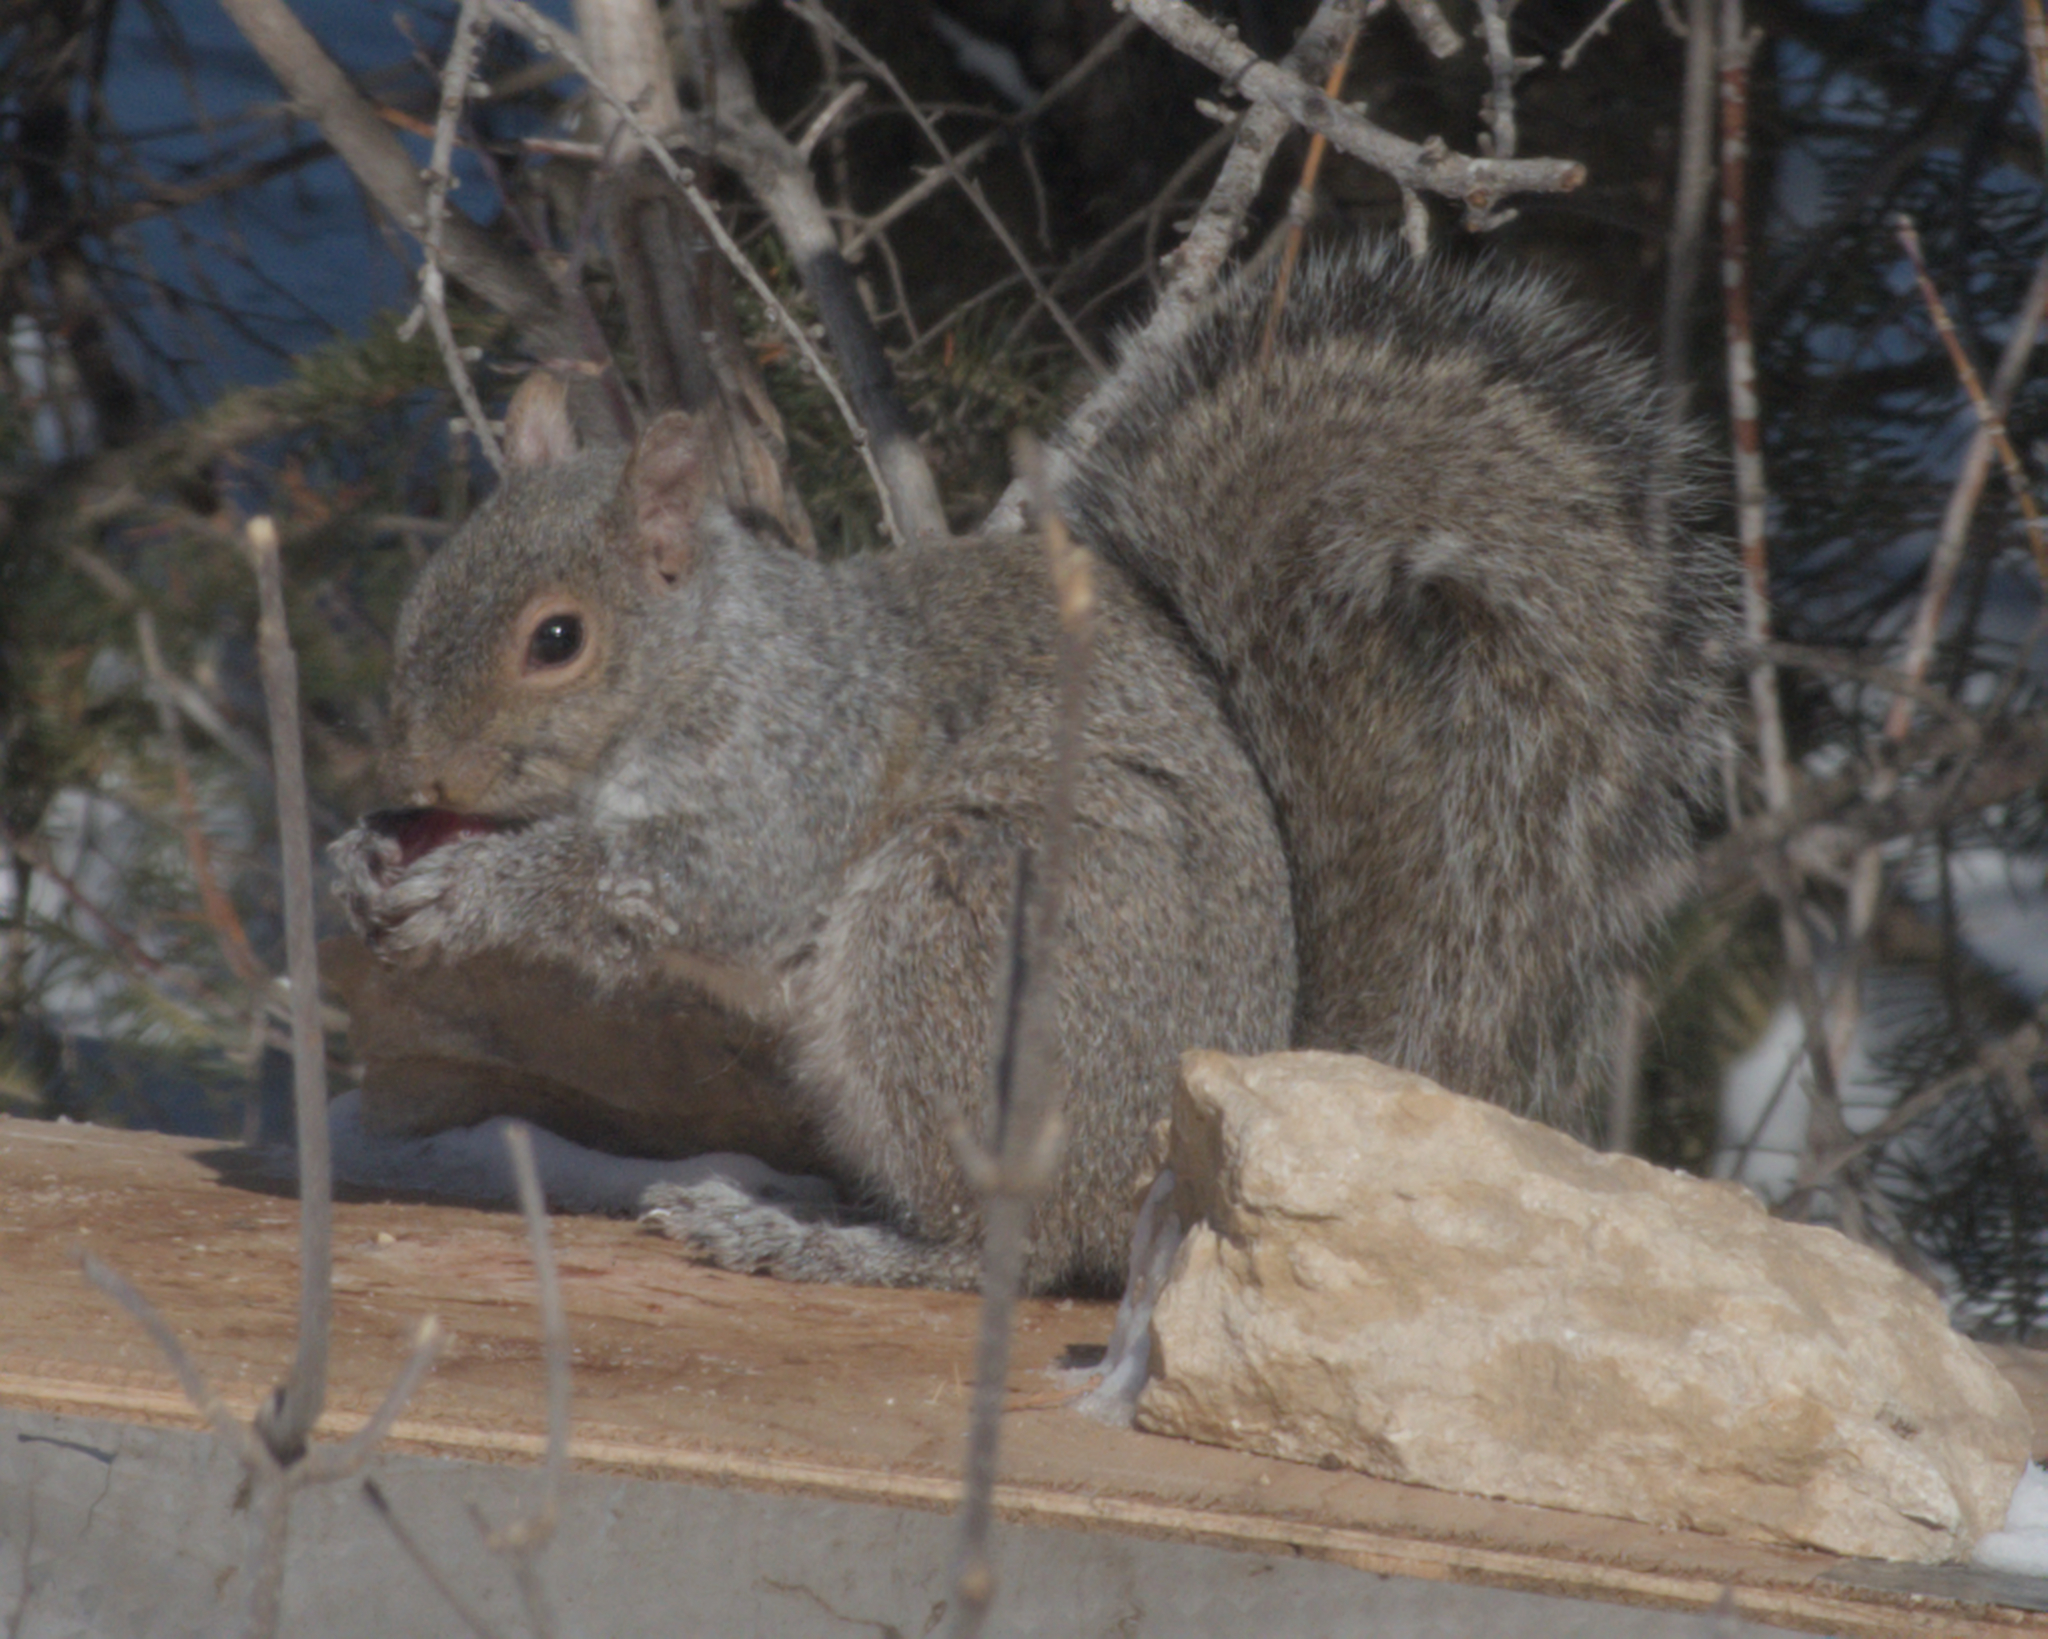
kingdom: Animalia
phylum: Chordata
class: Mammalia
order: Rodentia
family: Sciuridae
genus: Sciurus
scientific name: Sciurus carolinensis
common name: Eastern gray squirrel
